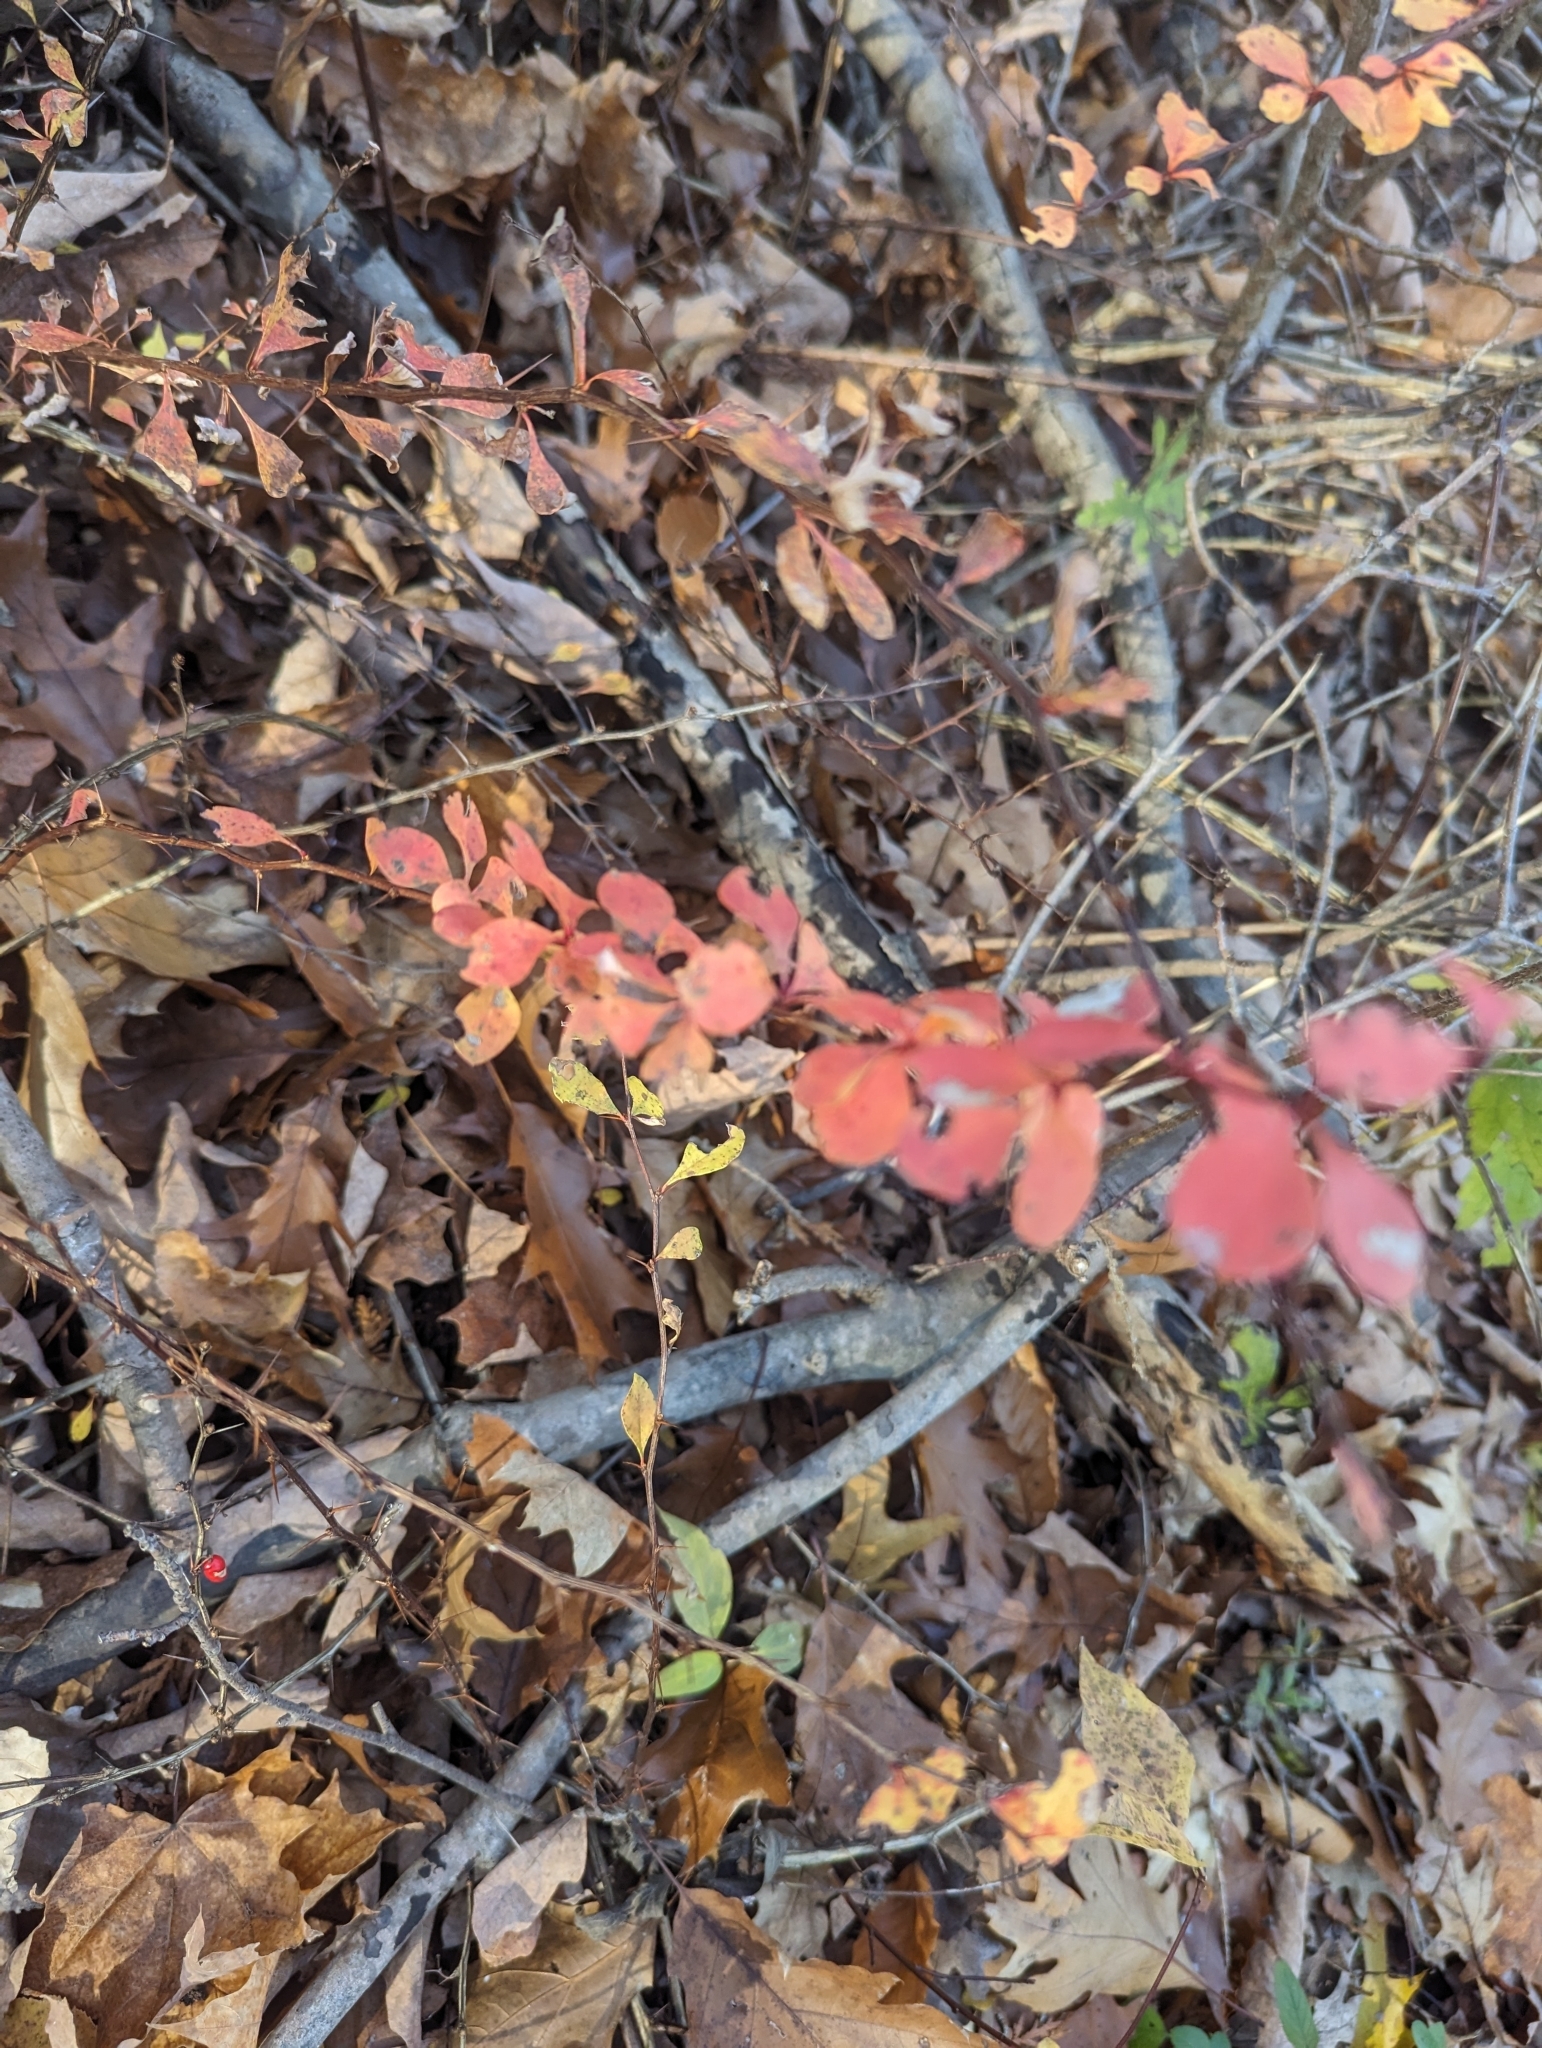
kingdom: Plantae
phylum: Tracheophyta
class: Magnoliopsida
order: Ranunculales
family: Berberidaceae
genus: Berberis
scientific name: Berberis thunbergii
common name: Japanese barberry
